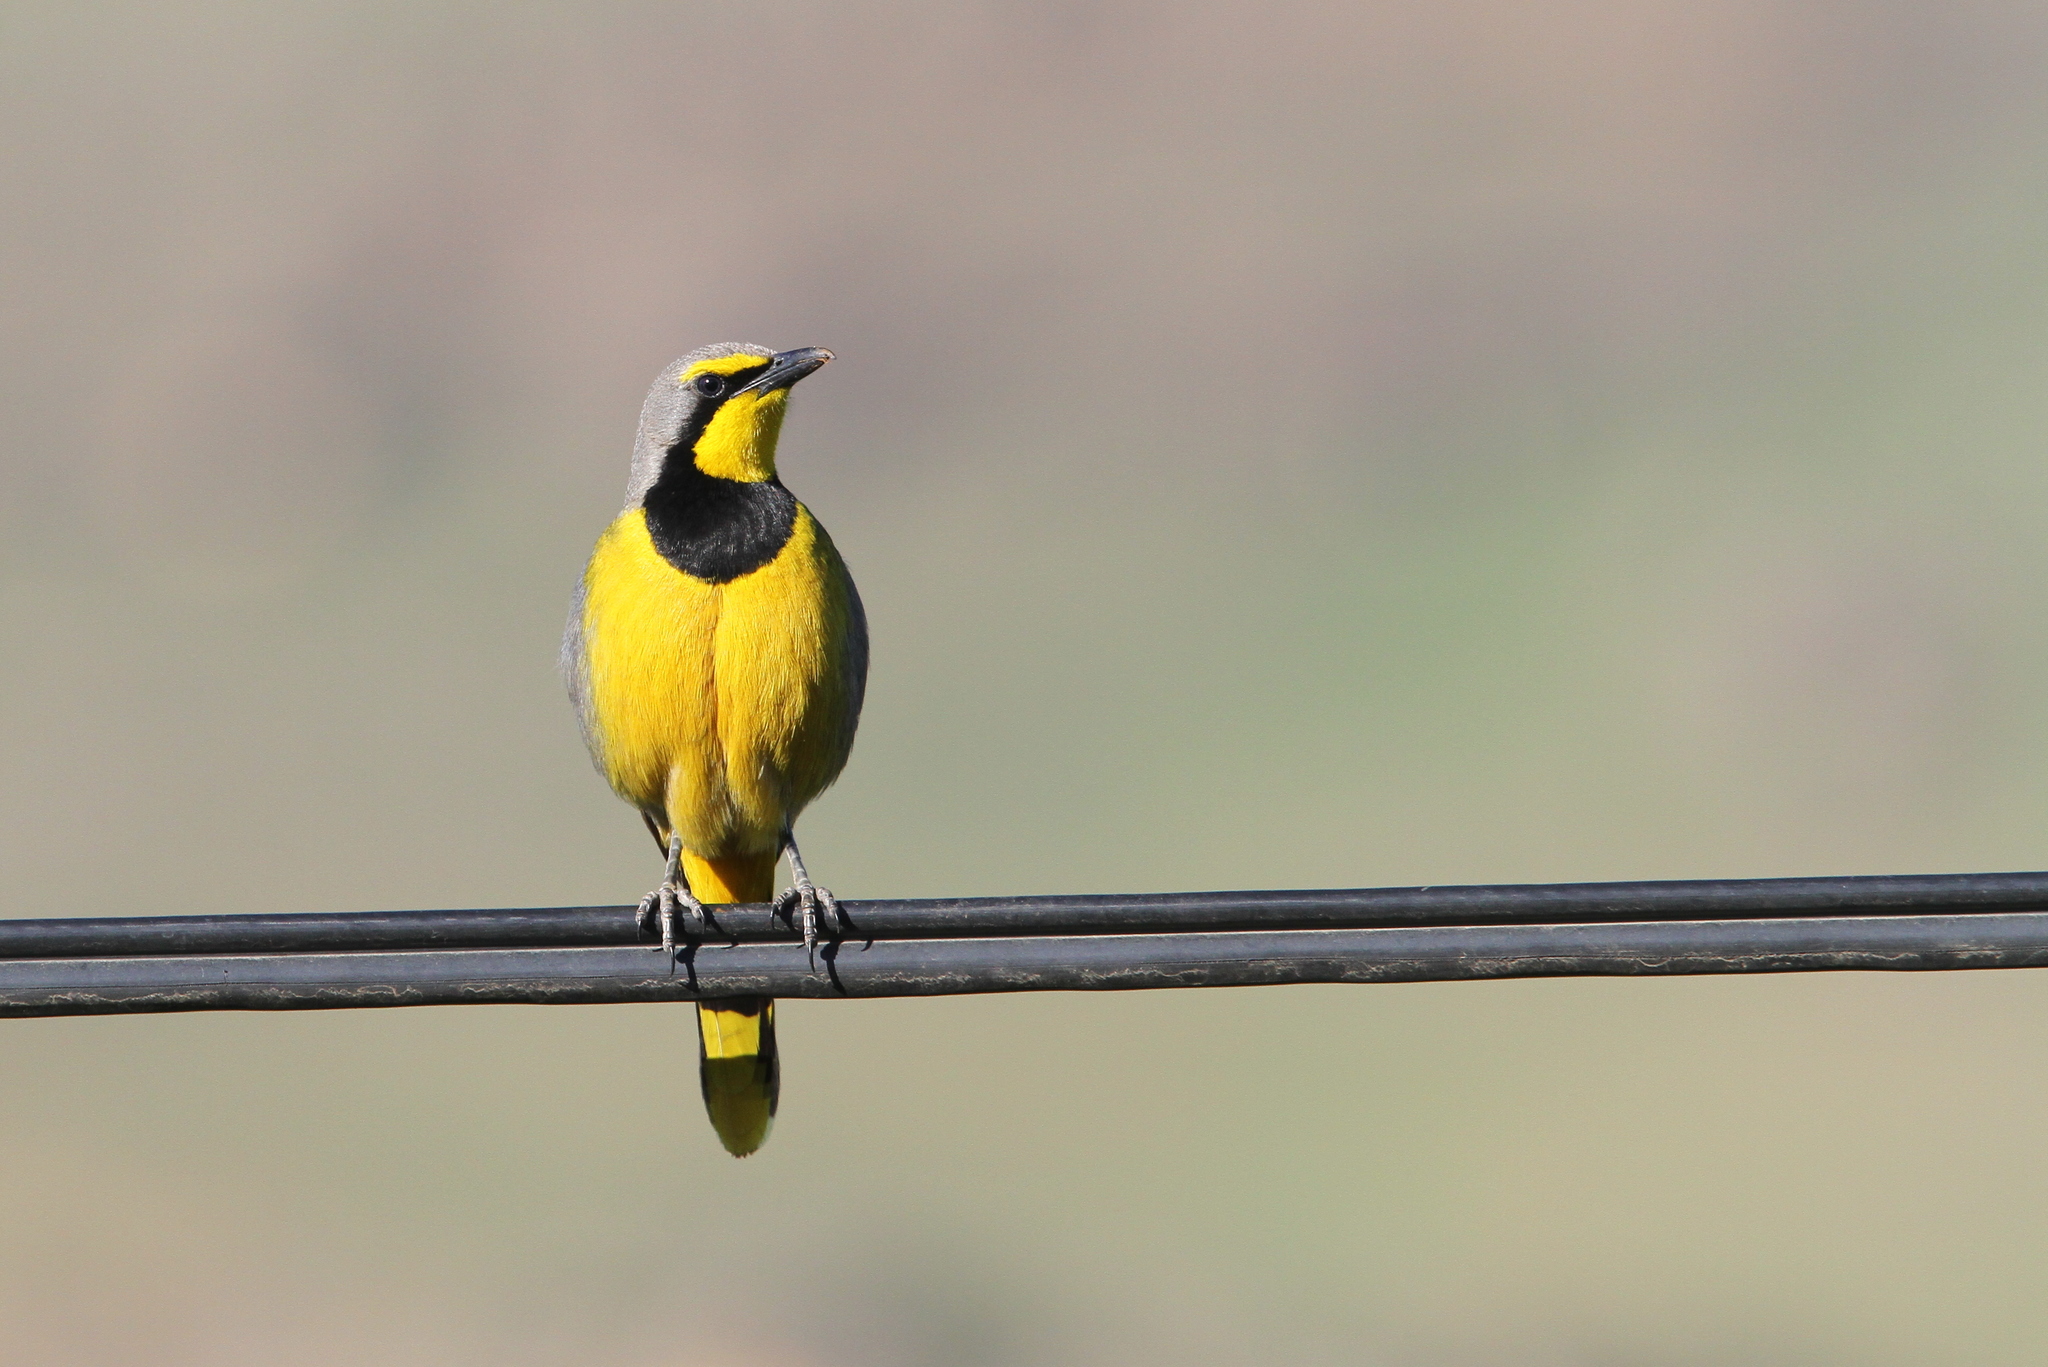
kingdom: Animalia
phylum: Chordata
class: Aves
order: Passeriformes
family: Malaconotidae
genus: Telophorus
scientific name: Telophorus zeylonus
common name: Bokmakierie
